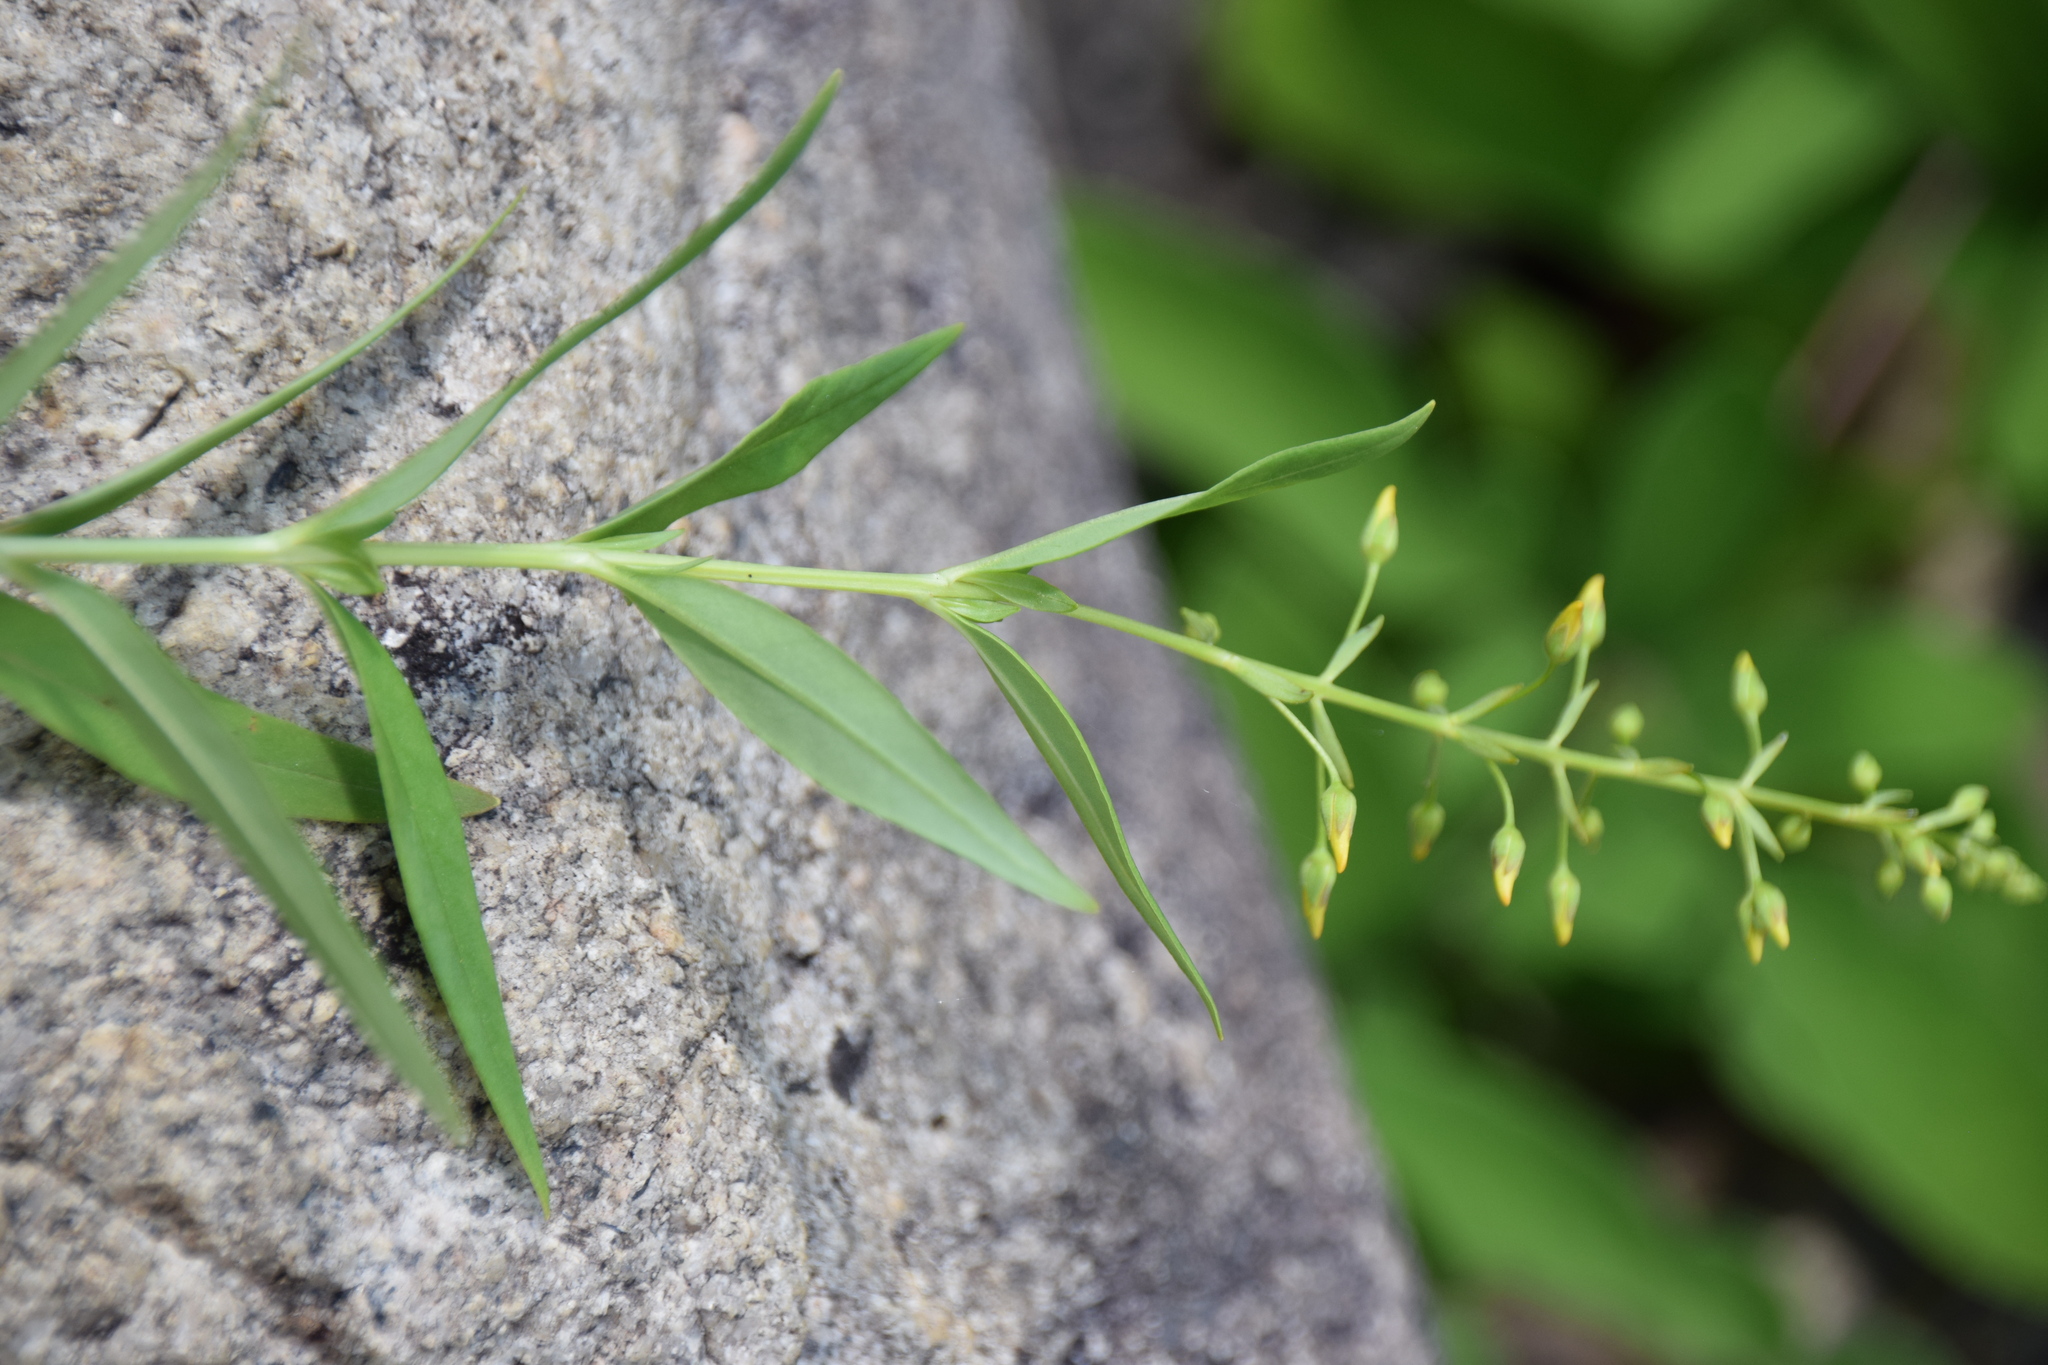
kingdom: Plantae
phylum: Tracheophyta
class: Magnoliopsida
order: Ericales
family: Primulaceae
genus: Lysimachia
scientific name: Lysimachia terrestris
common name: Lake loosestrife
